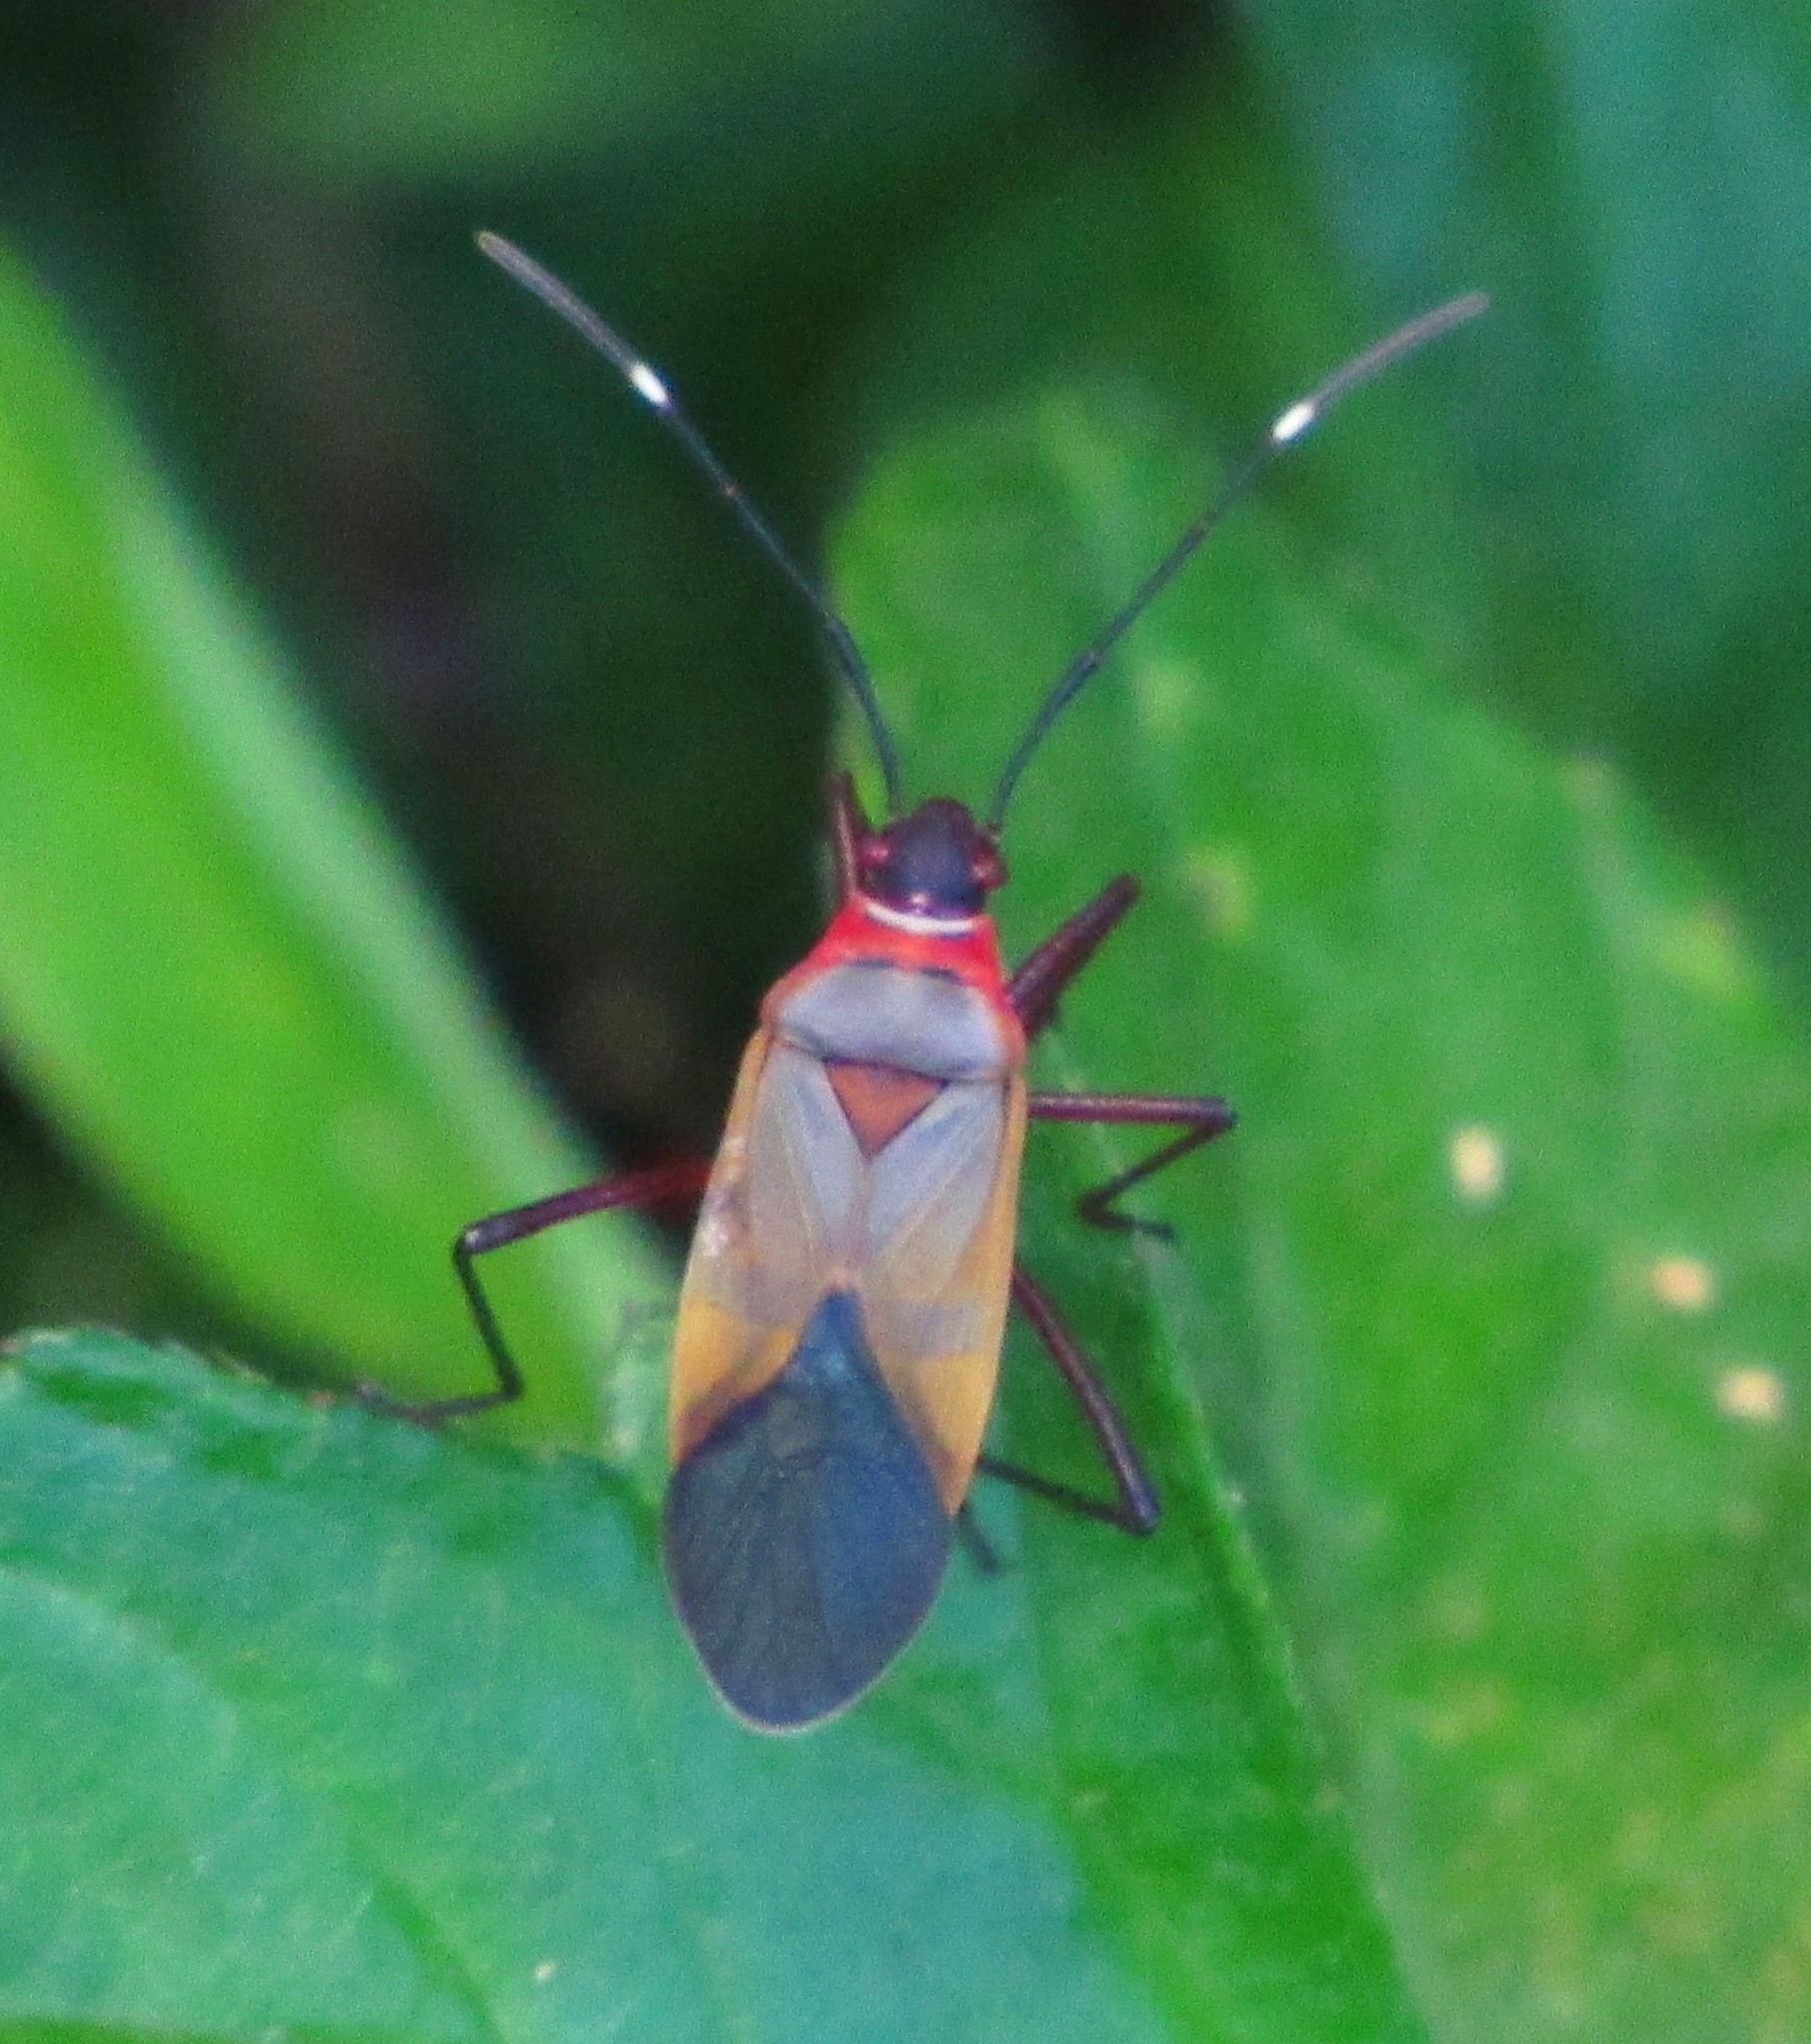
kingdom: Animalia
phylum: Arthropoda
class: Insecta
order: Hemiptera
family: Pyrrhocoridae
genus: Dysdercus
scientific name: Dysdercus ruficollis
